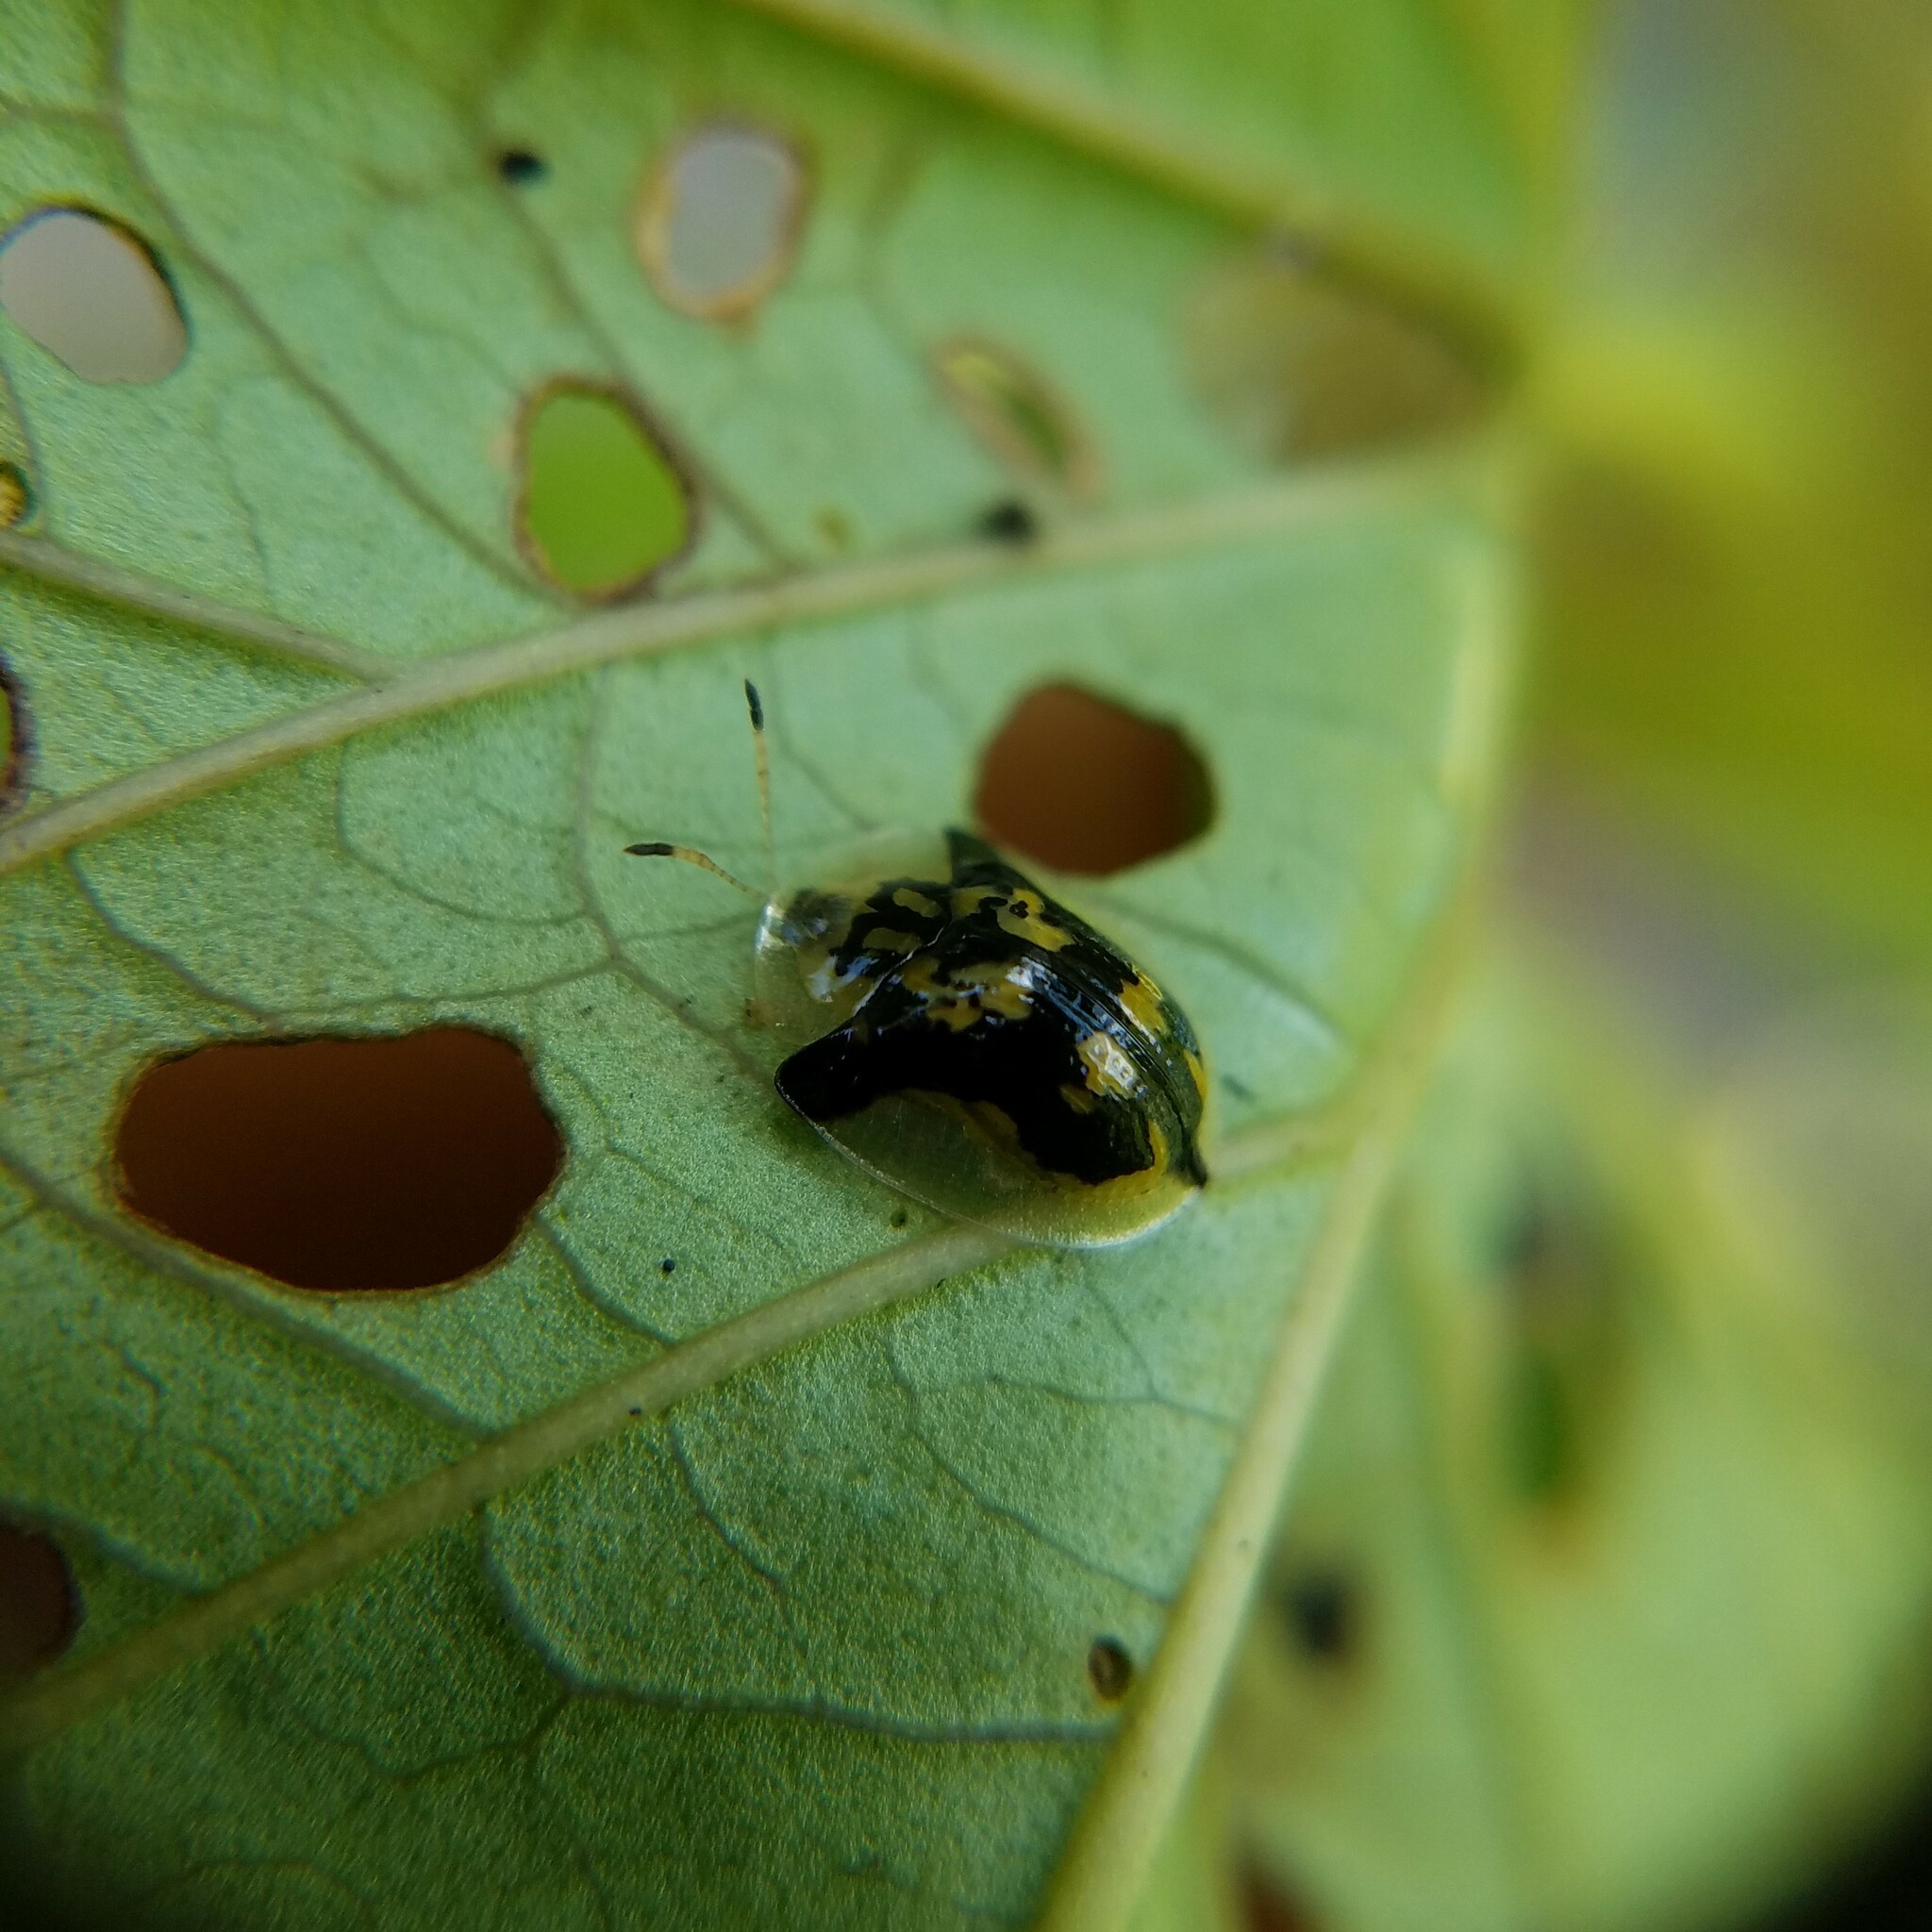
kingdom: Animalia
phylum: Arthropoda
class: Insecta
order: Coleoptera
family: Chrysomelidae
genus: Deloyala
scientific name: Deloyala guttata
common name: Mottled tortoise beetle
